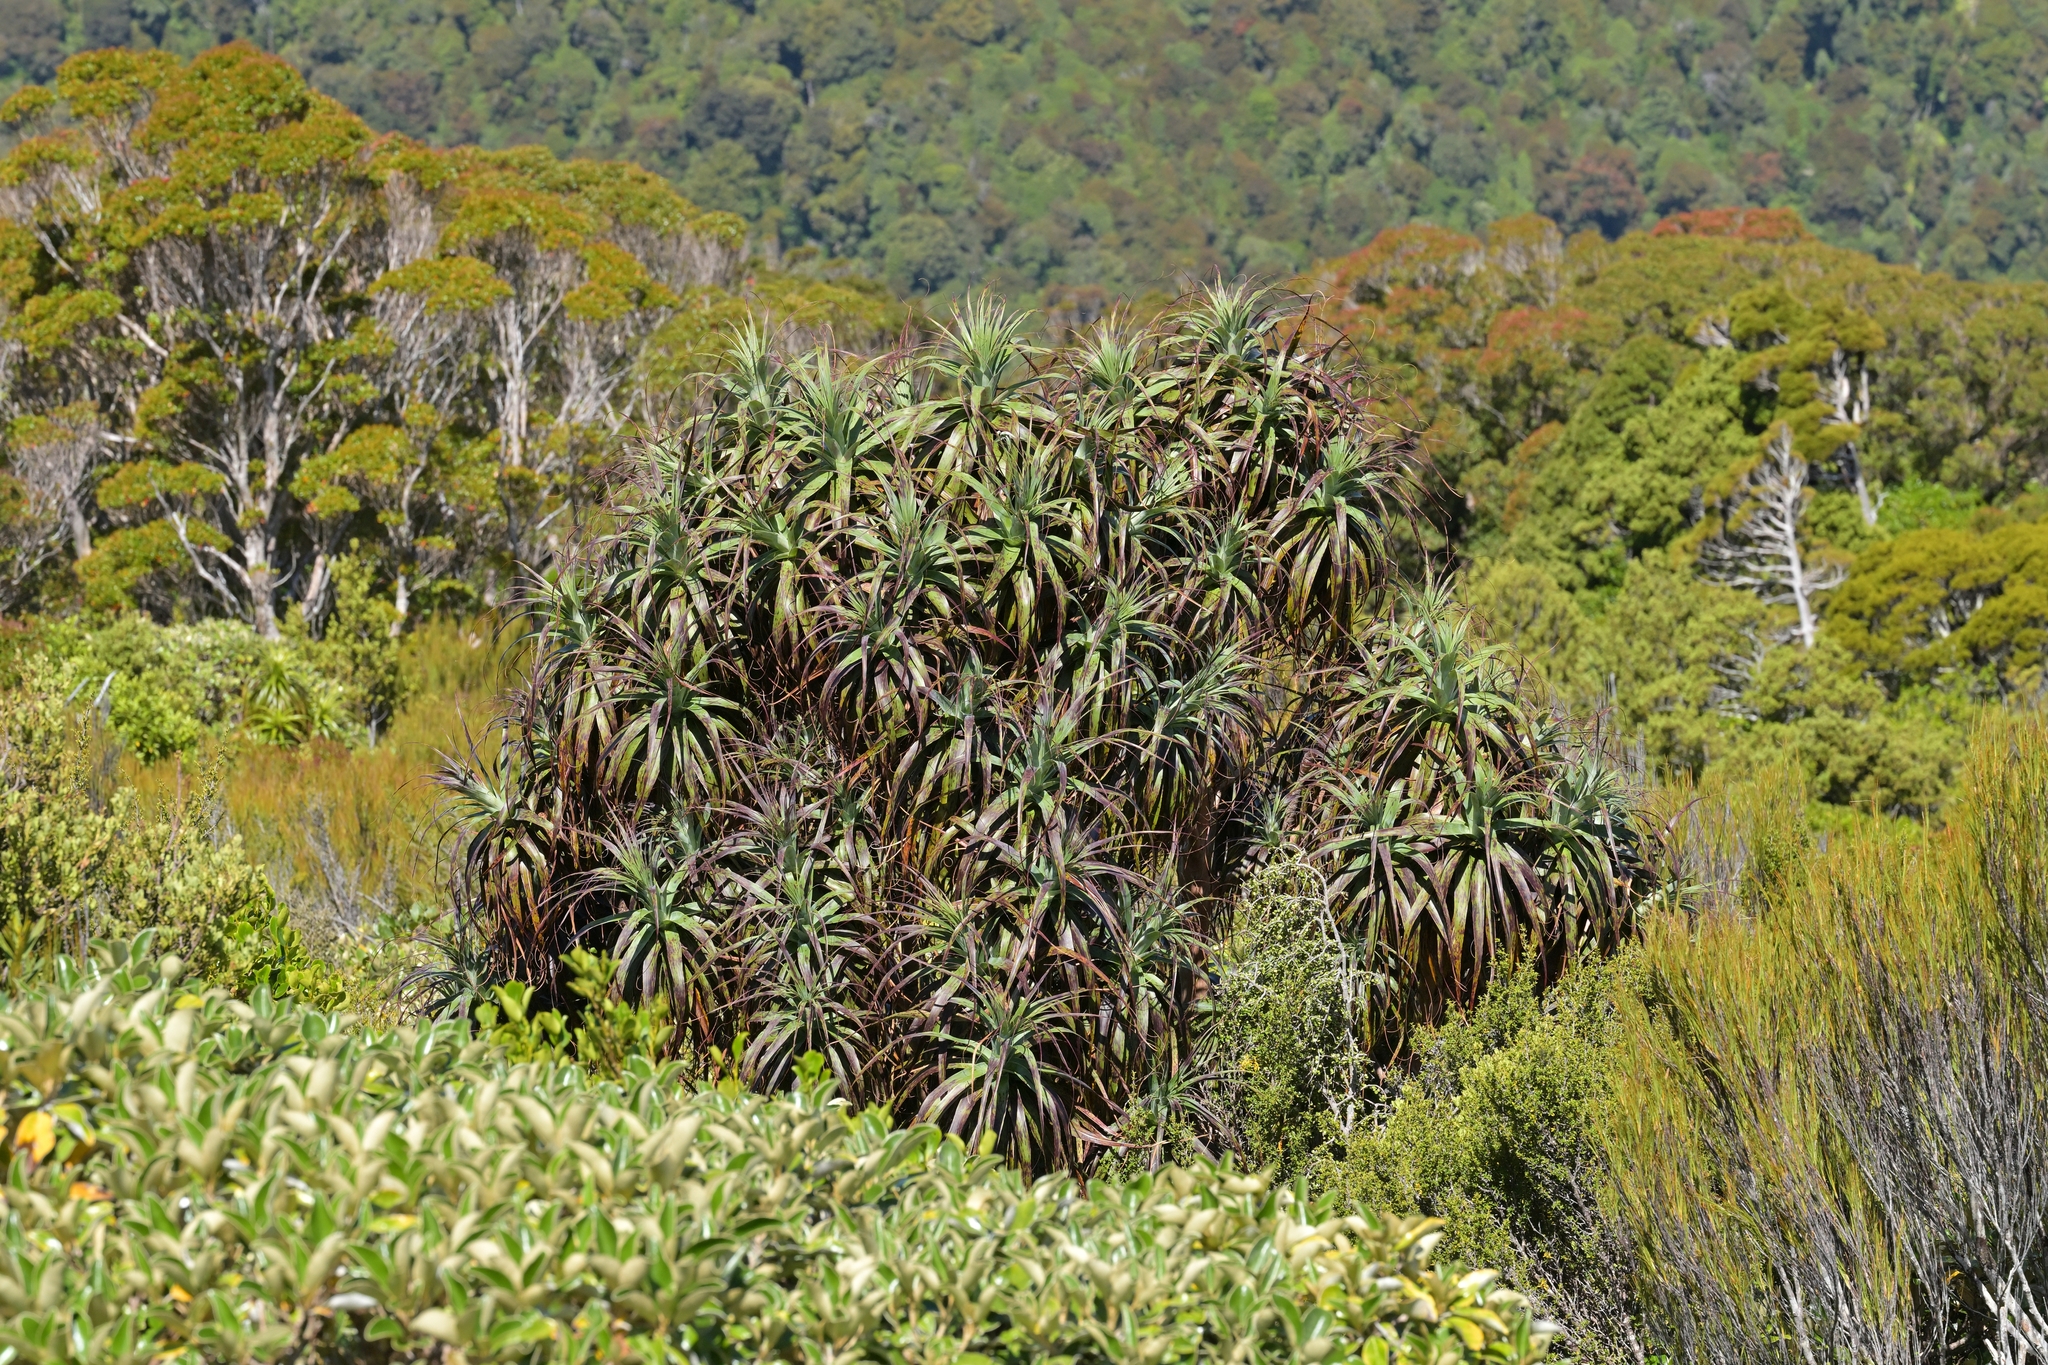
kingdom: Plantae
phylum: Tracheophyta
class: Magnoliopsida
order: Ericales
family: Ericaceae
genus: Dracophyllum
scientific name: Dracophyllum traversii
